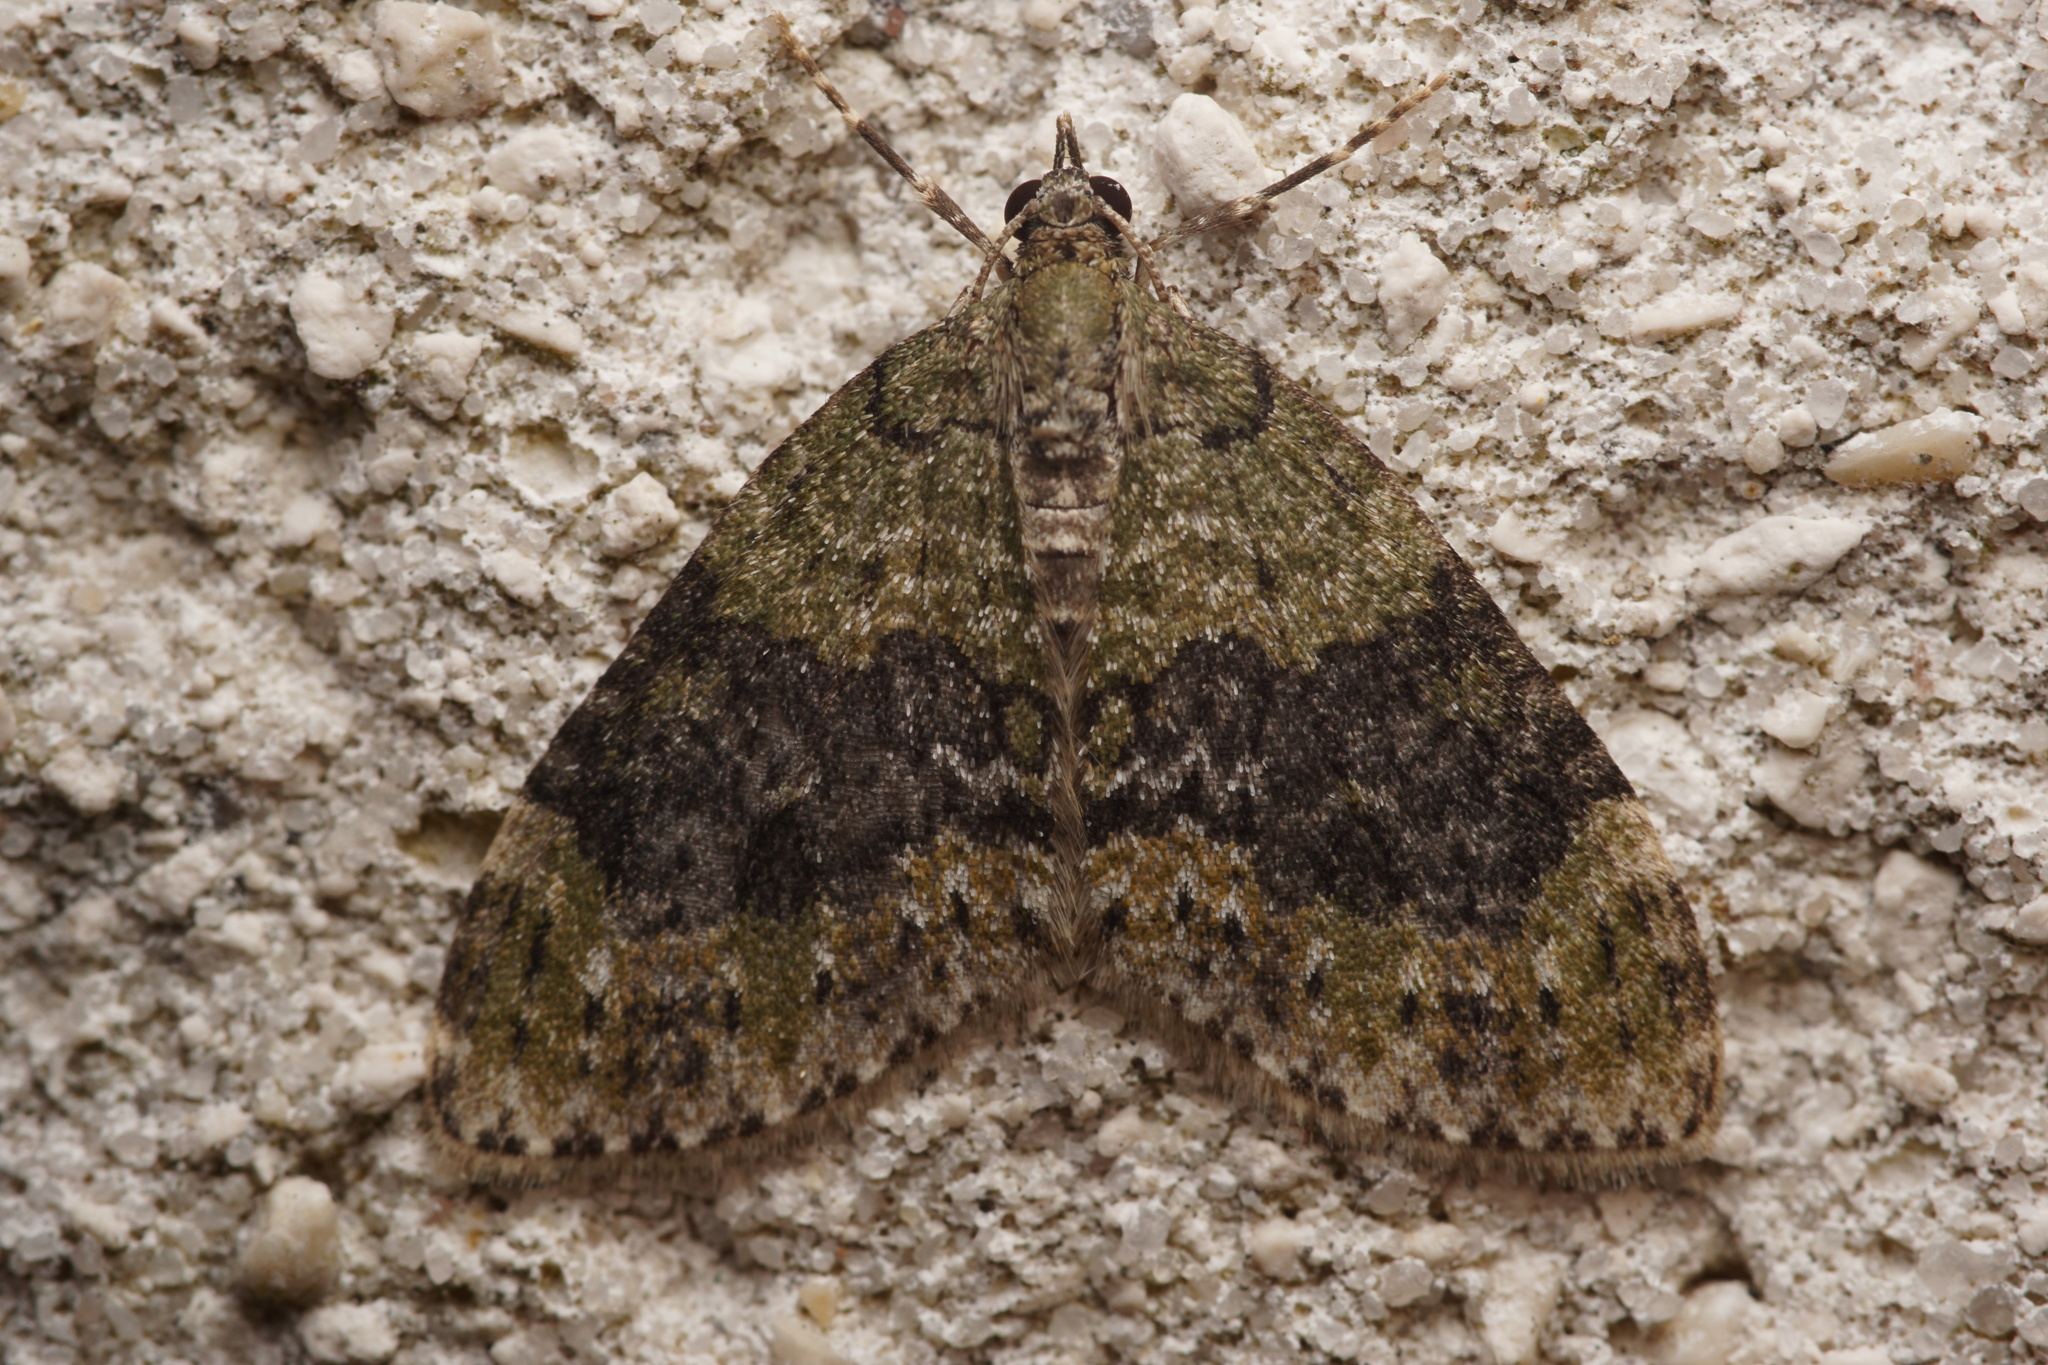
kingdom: Animalia
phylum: Arthropoda
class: Insecta
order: Lepidoptera
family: Geometridae
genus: Acasis
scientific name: Acasis viretata
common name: Yellow-barred brindle
